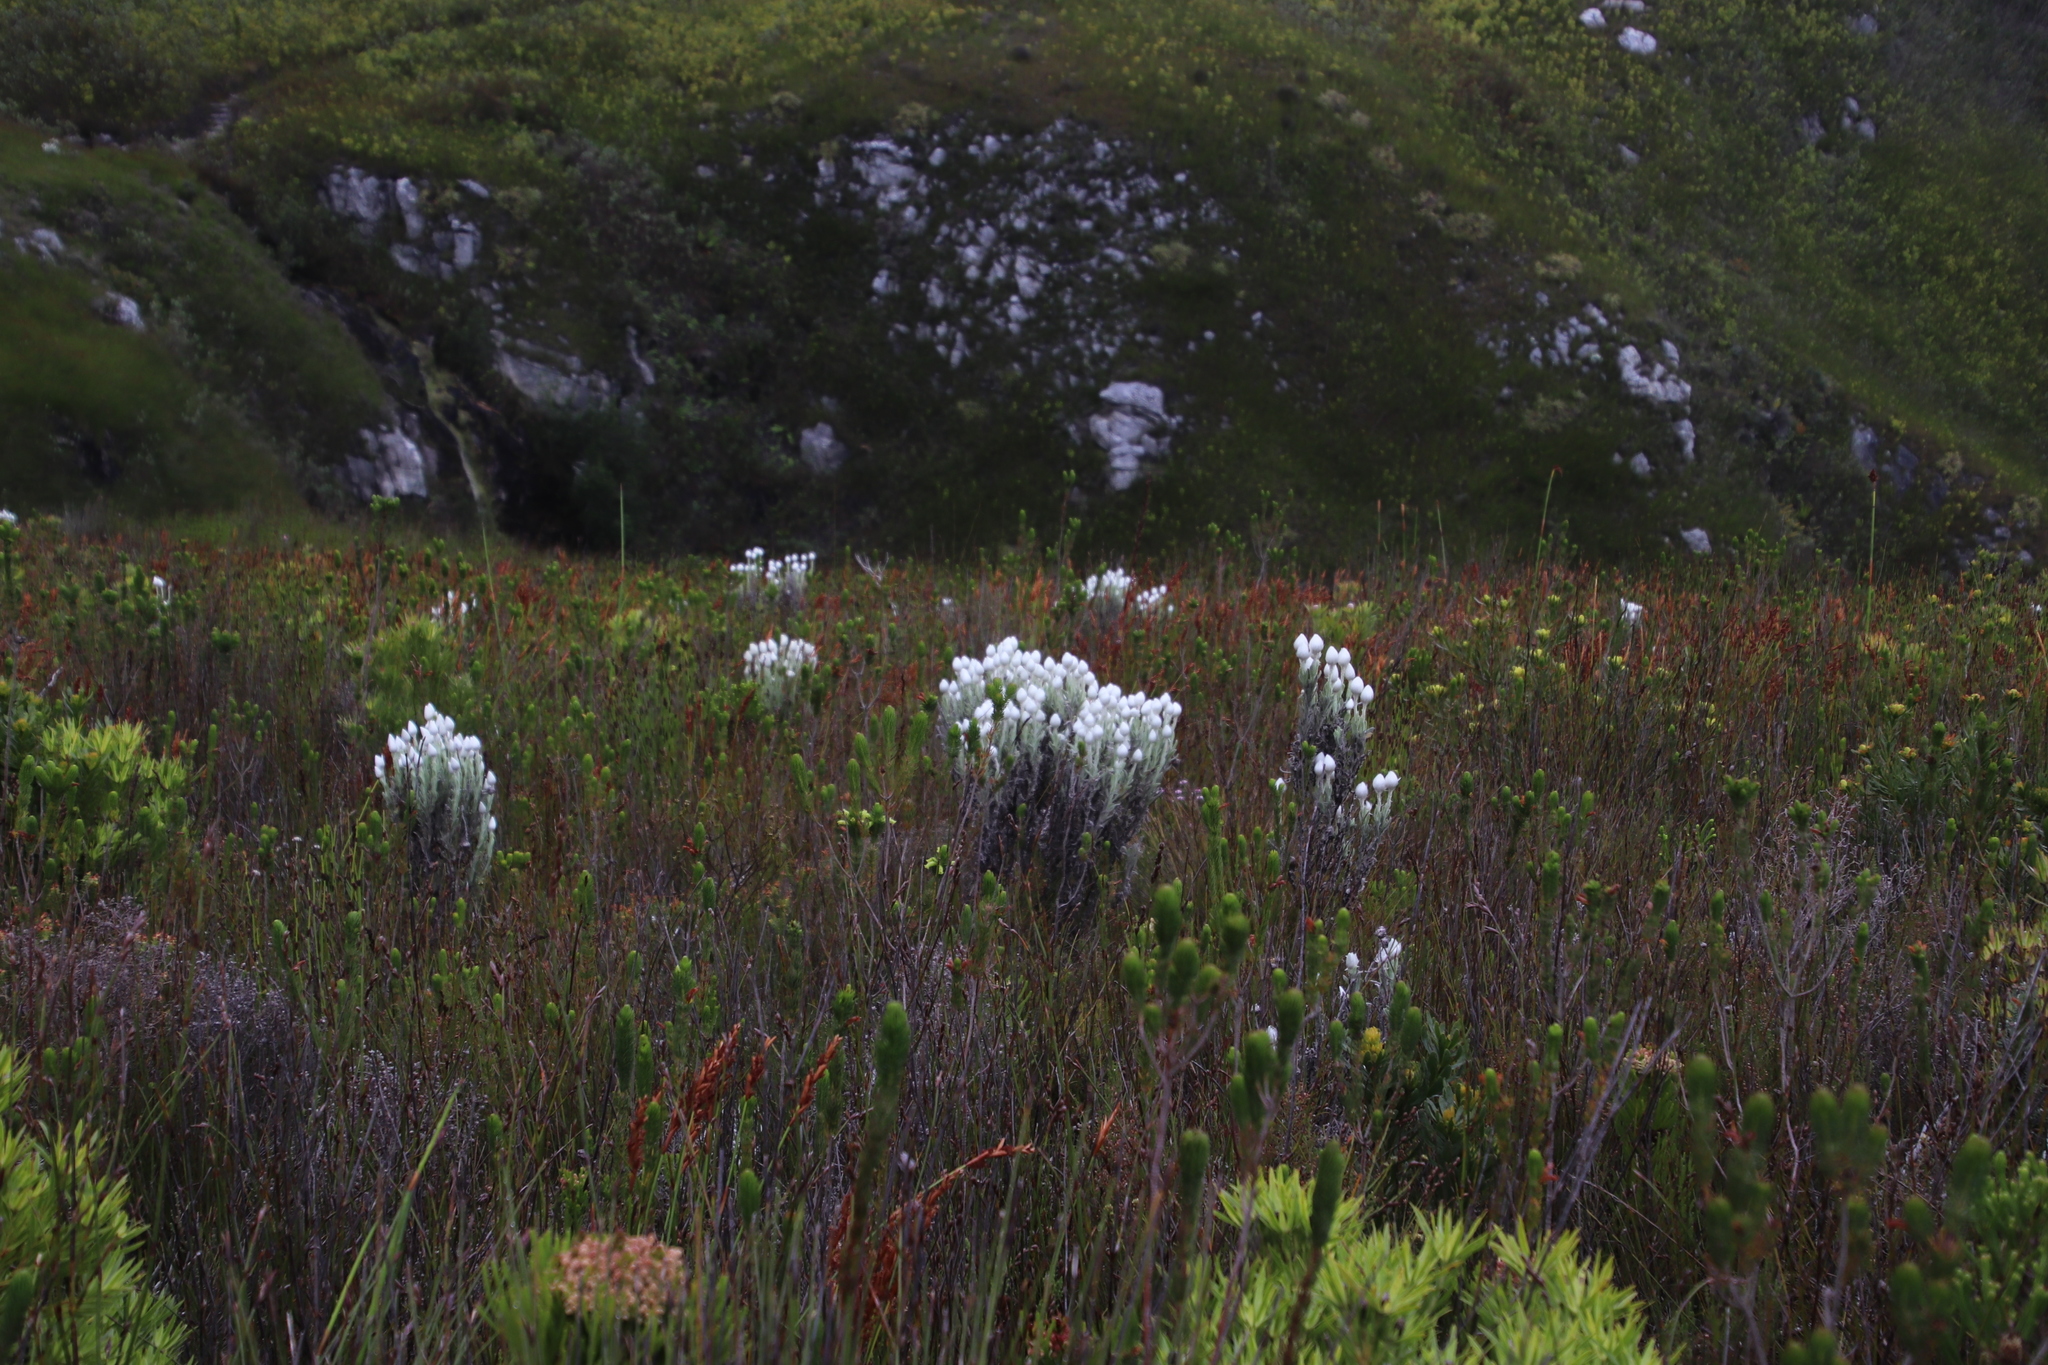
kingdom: Plantae
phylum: Tracheophyta
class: Magnoliopsida
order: Asterales
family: Asteraceae
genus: Syncarpha
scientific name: Syncarpha vestita
